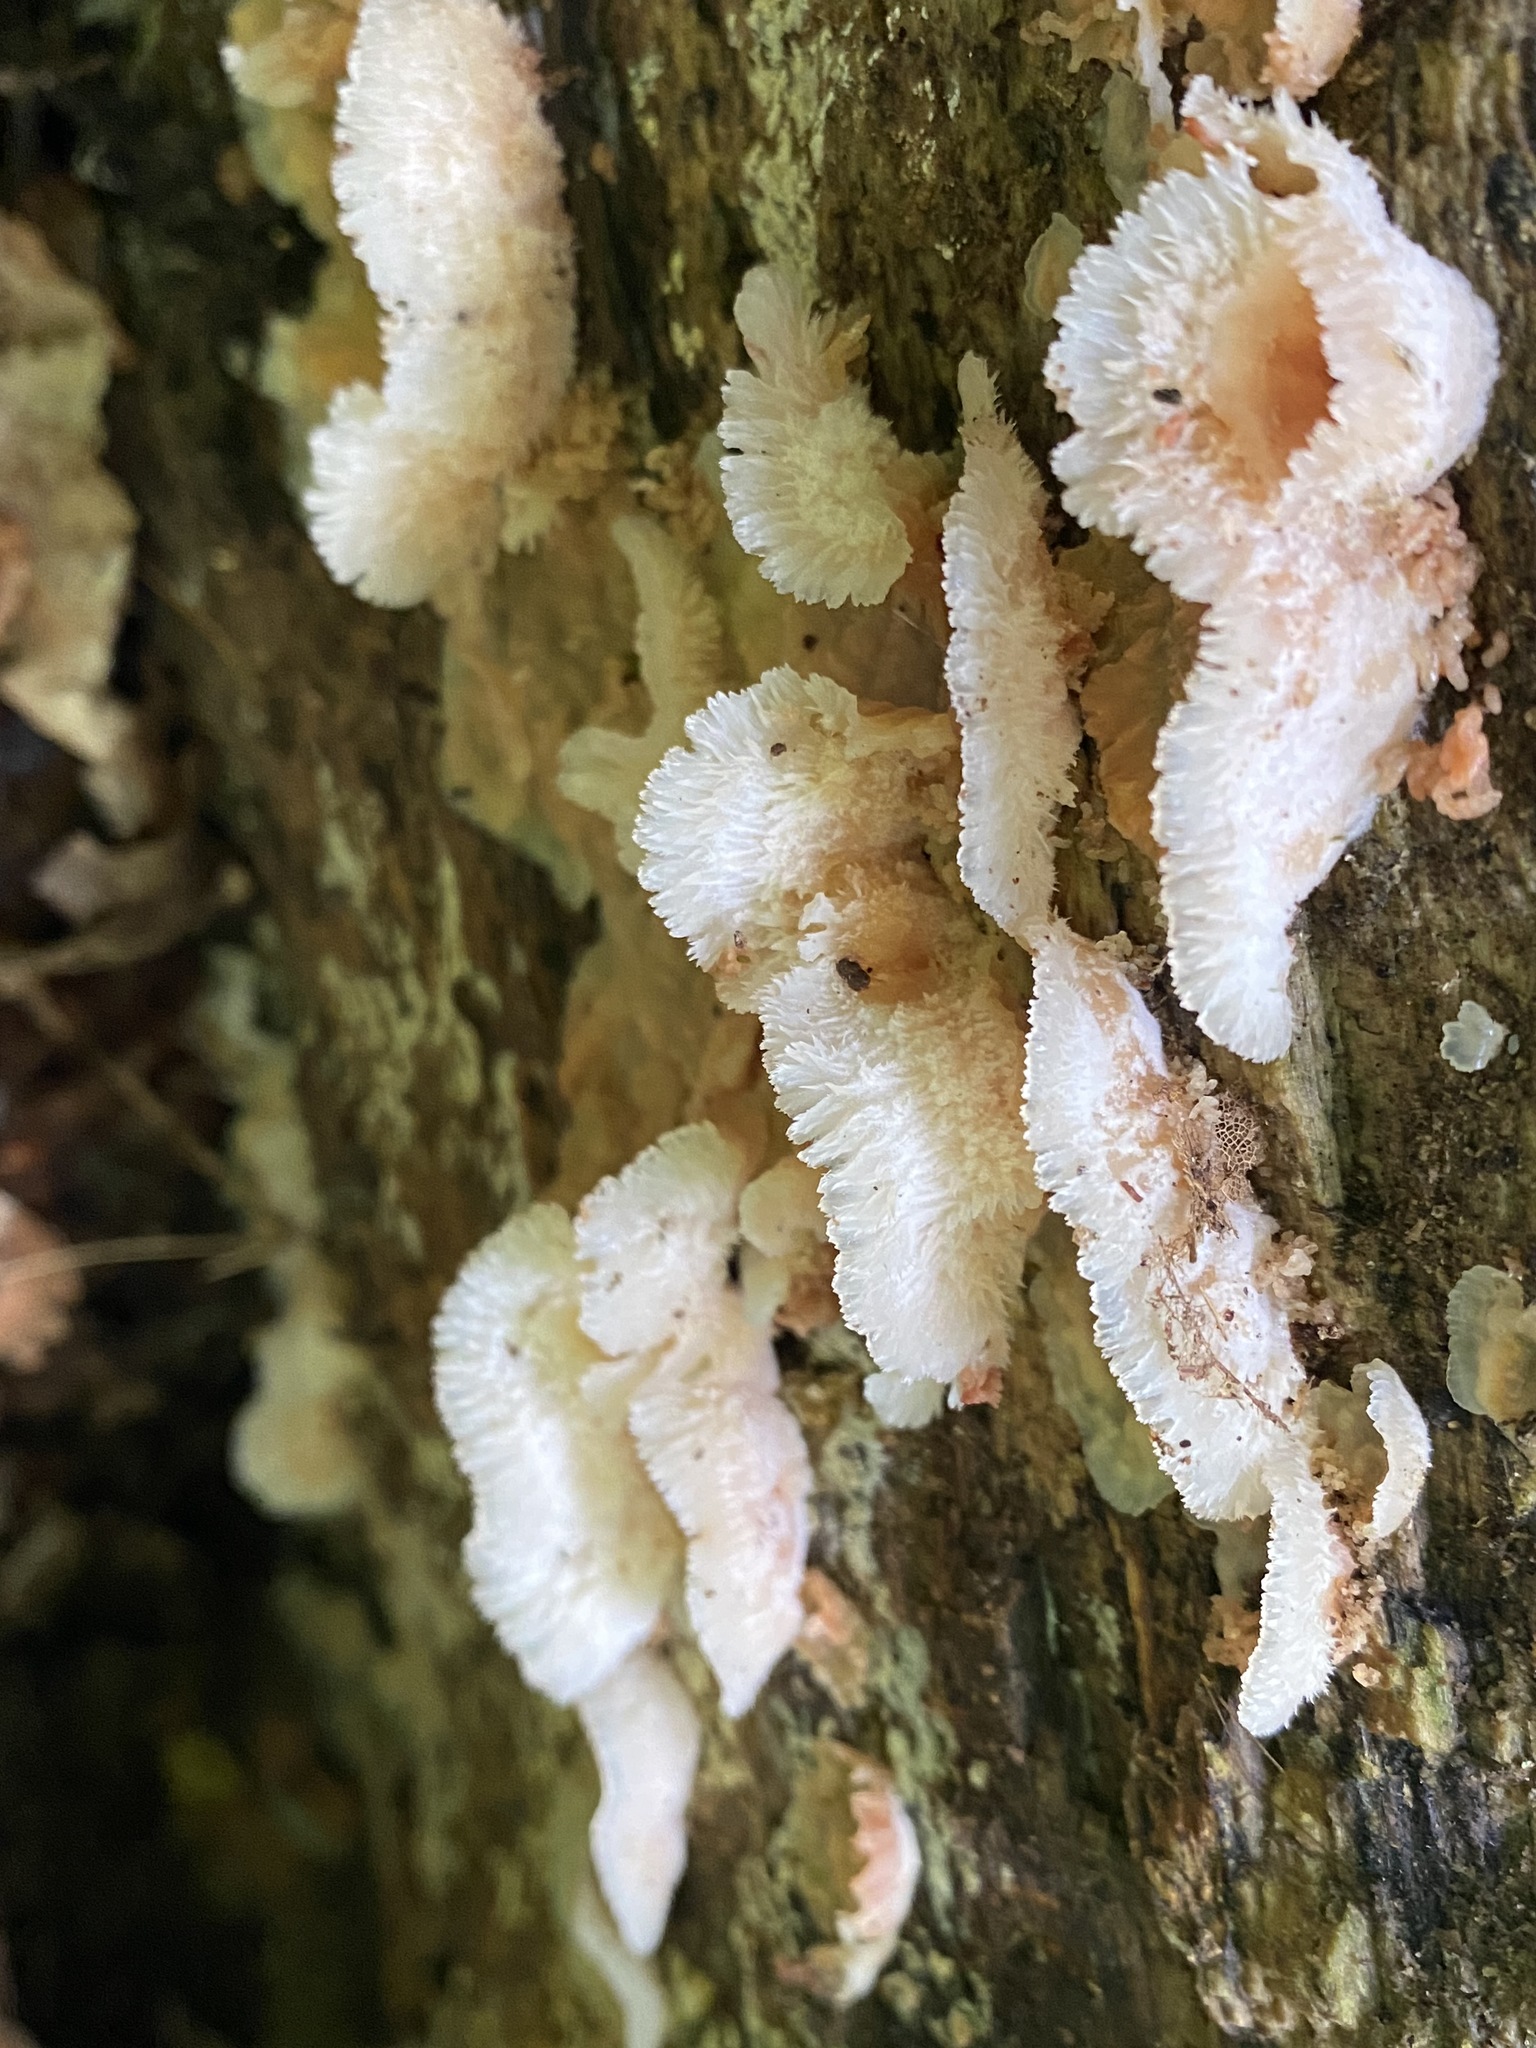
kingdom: Fungi
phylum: Basidiomycota
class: Agaricomycetes
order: Polyporales
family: Meruliaceae
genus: Phlebia
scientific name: Phlebia tremellosa
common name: Jelly rot
